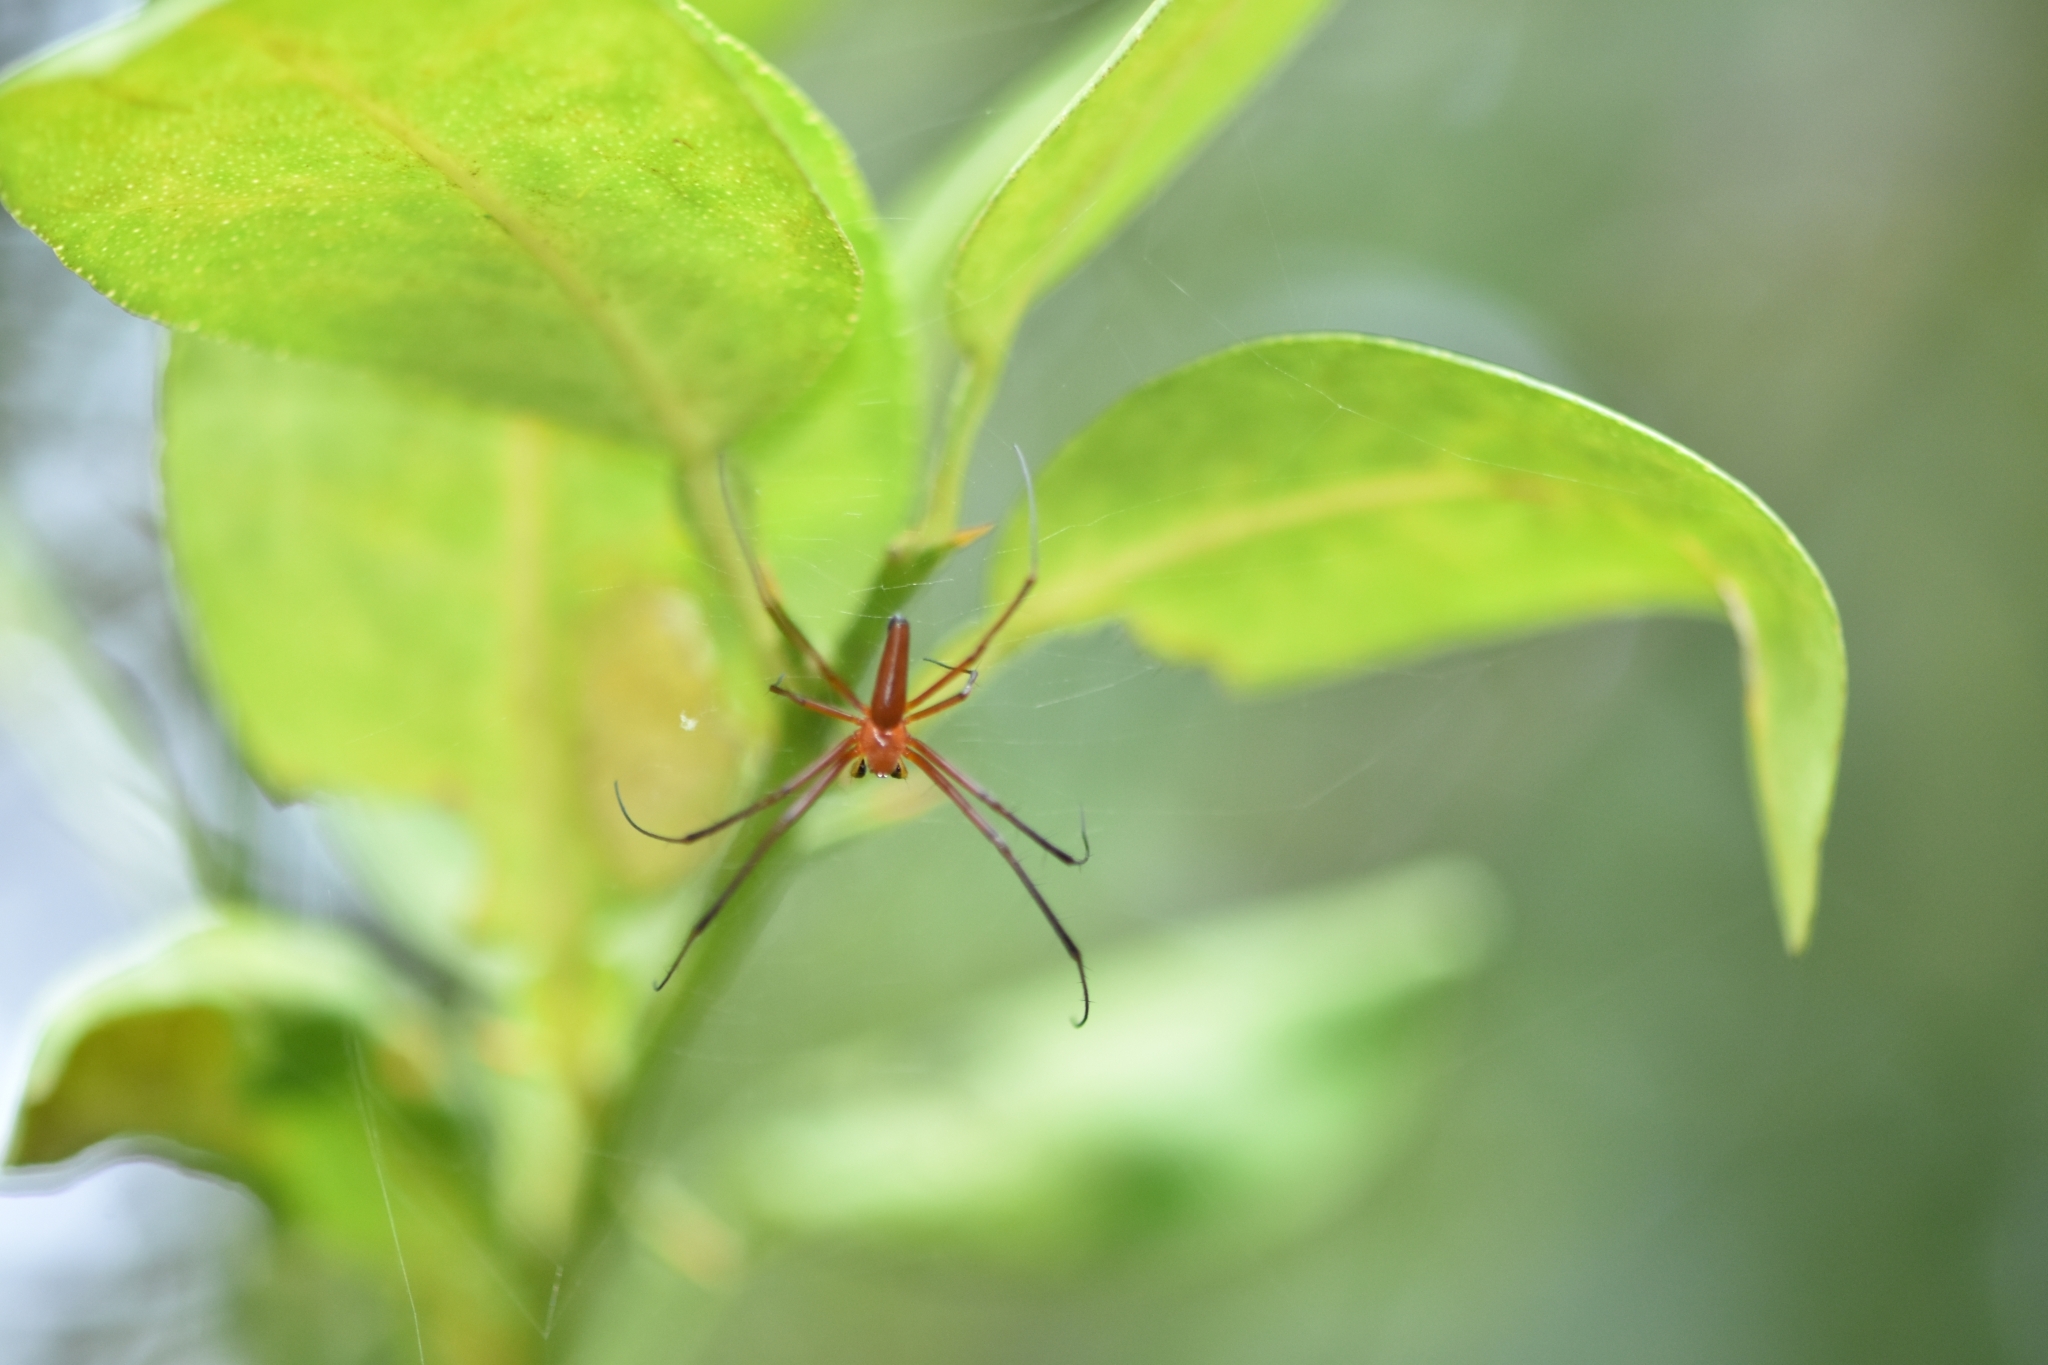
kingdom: Animalia
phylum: Arthropoda
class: Arachnida
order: Araneae
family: Araneidae
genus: Nephila
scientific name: Nephila pilipes
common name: Giant golden orb weaver
